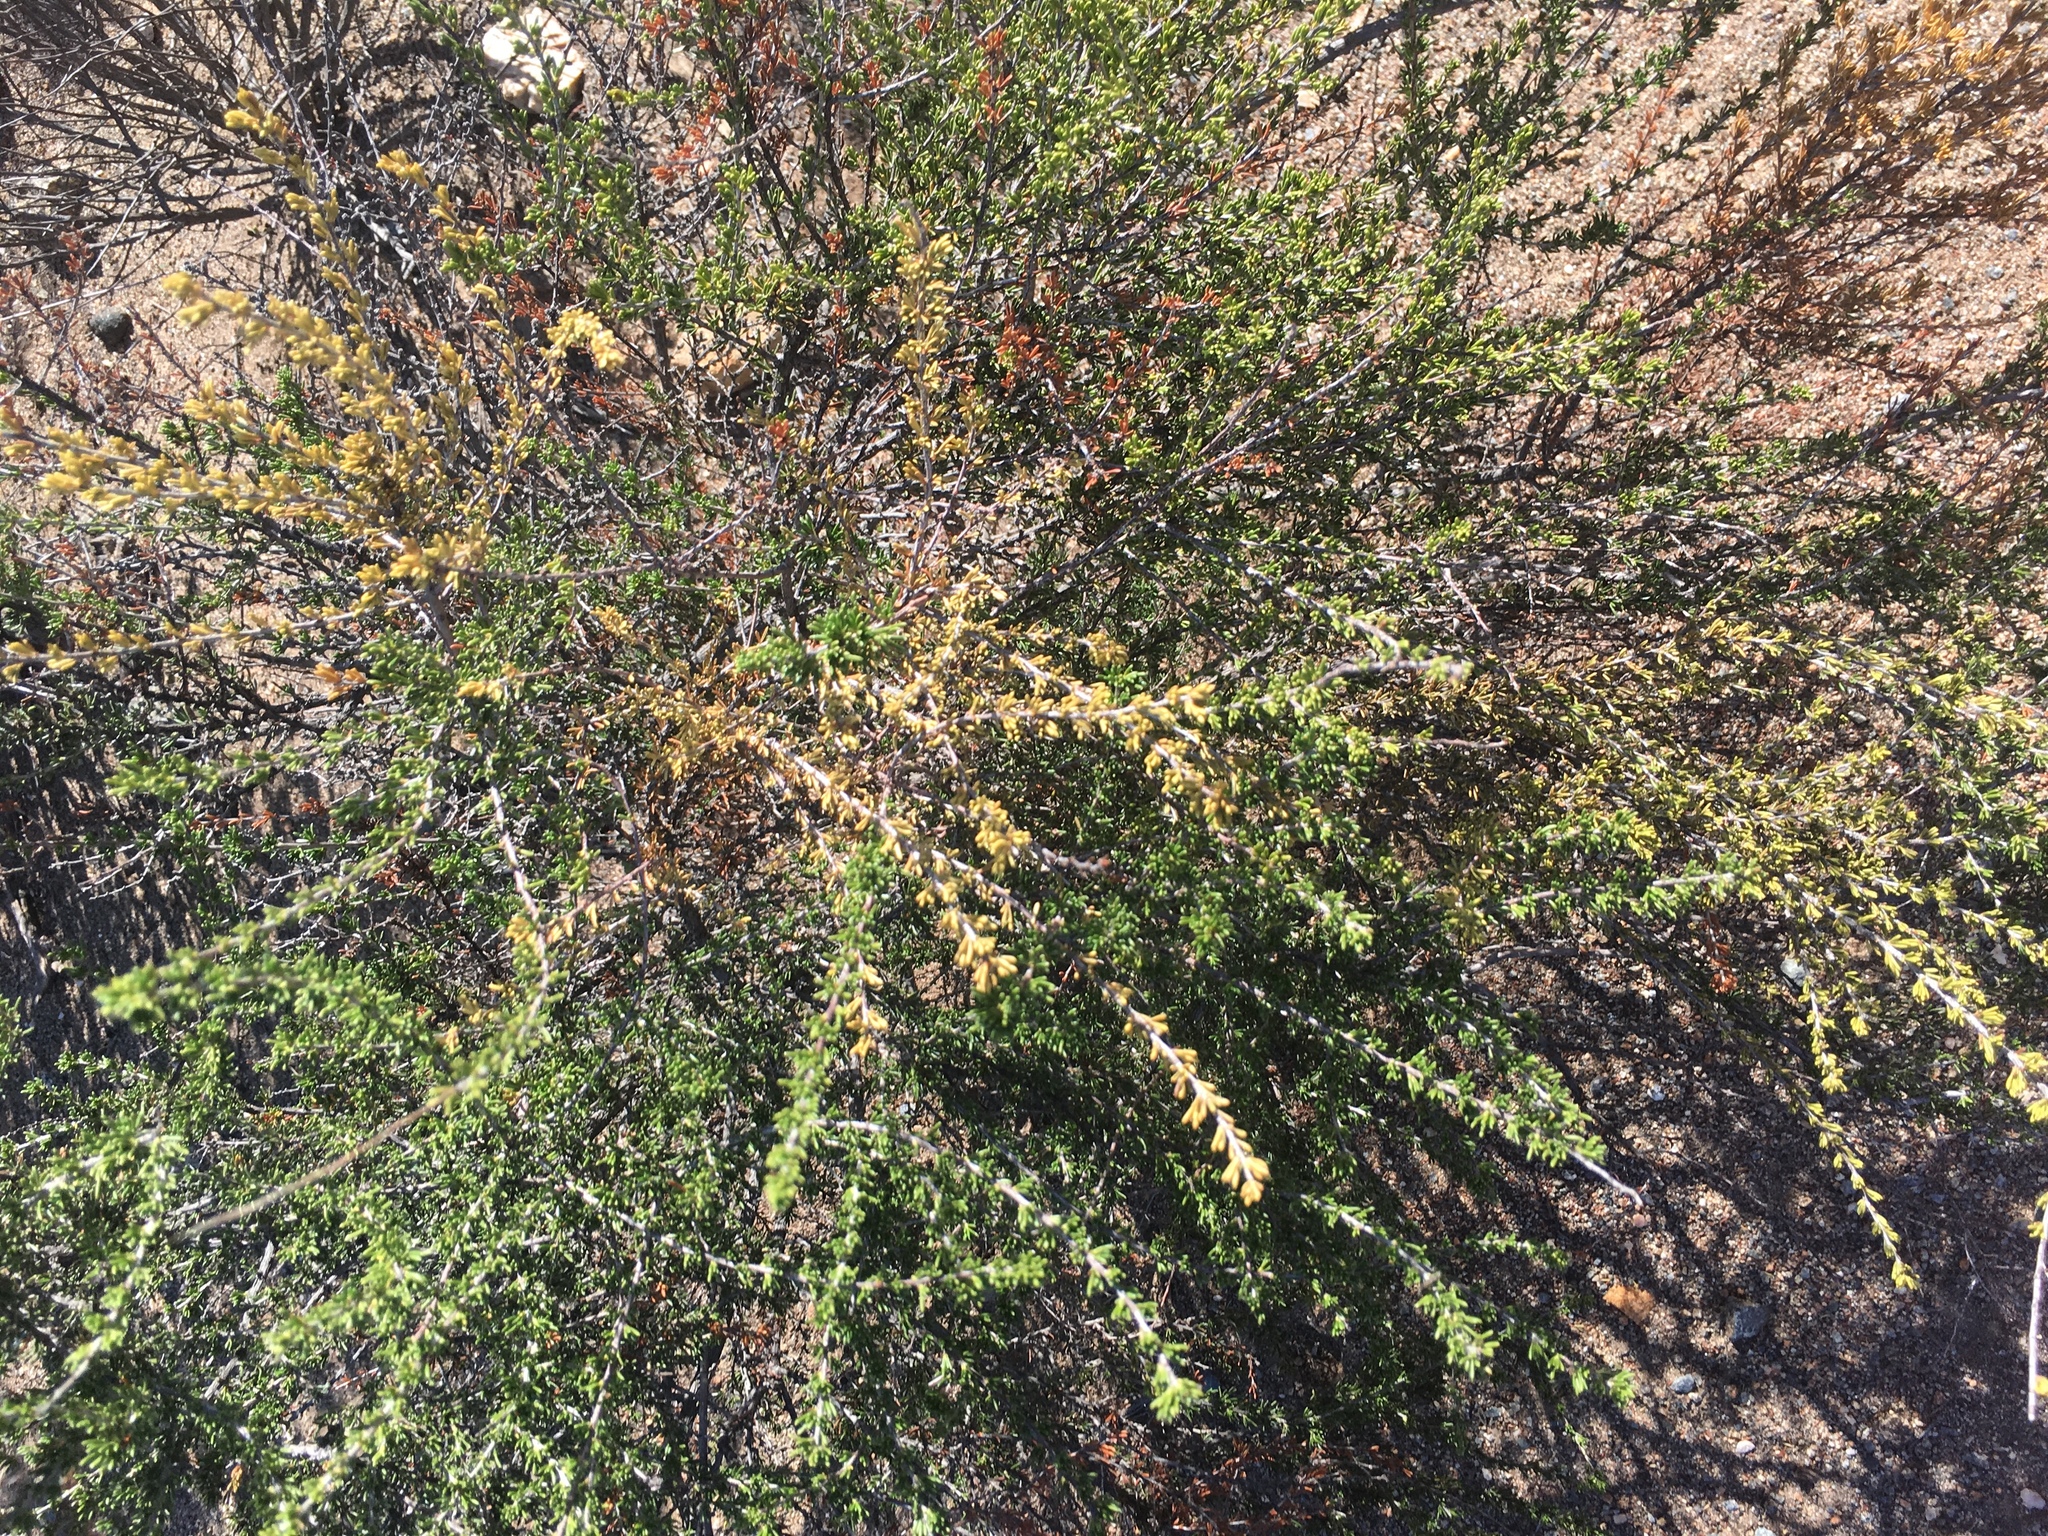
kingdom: Plantae
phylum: Tracheophyta
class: Magnoliopsida
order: Rosales
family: Rosaceae
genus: Adenostoma
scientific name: Adenostoma fasciculatum
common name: Chamise
